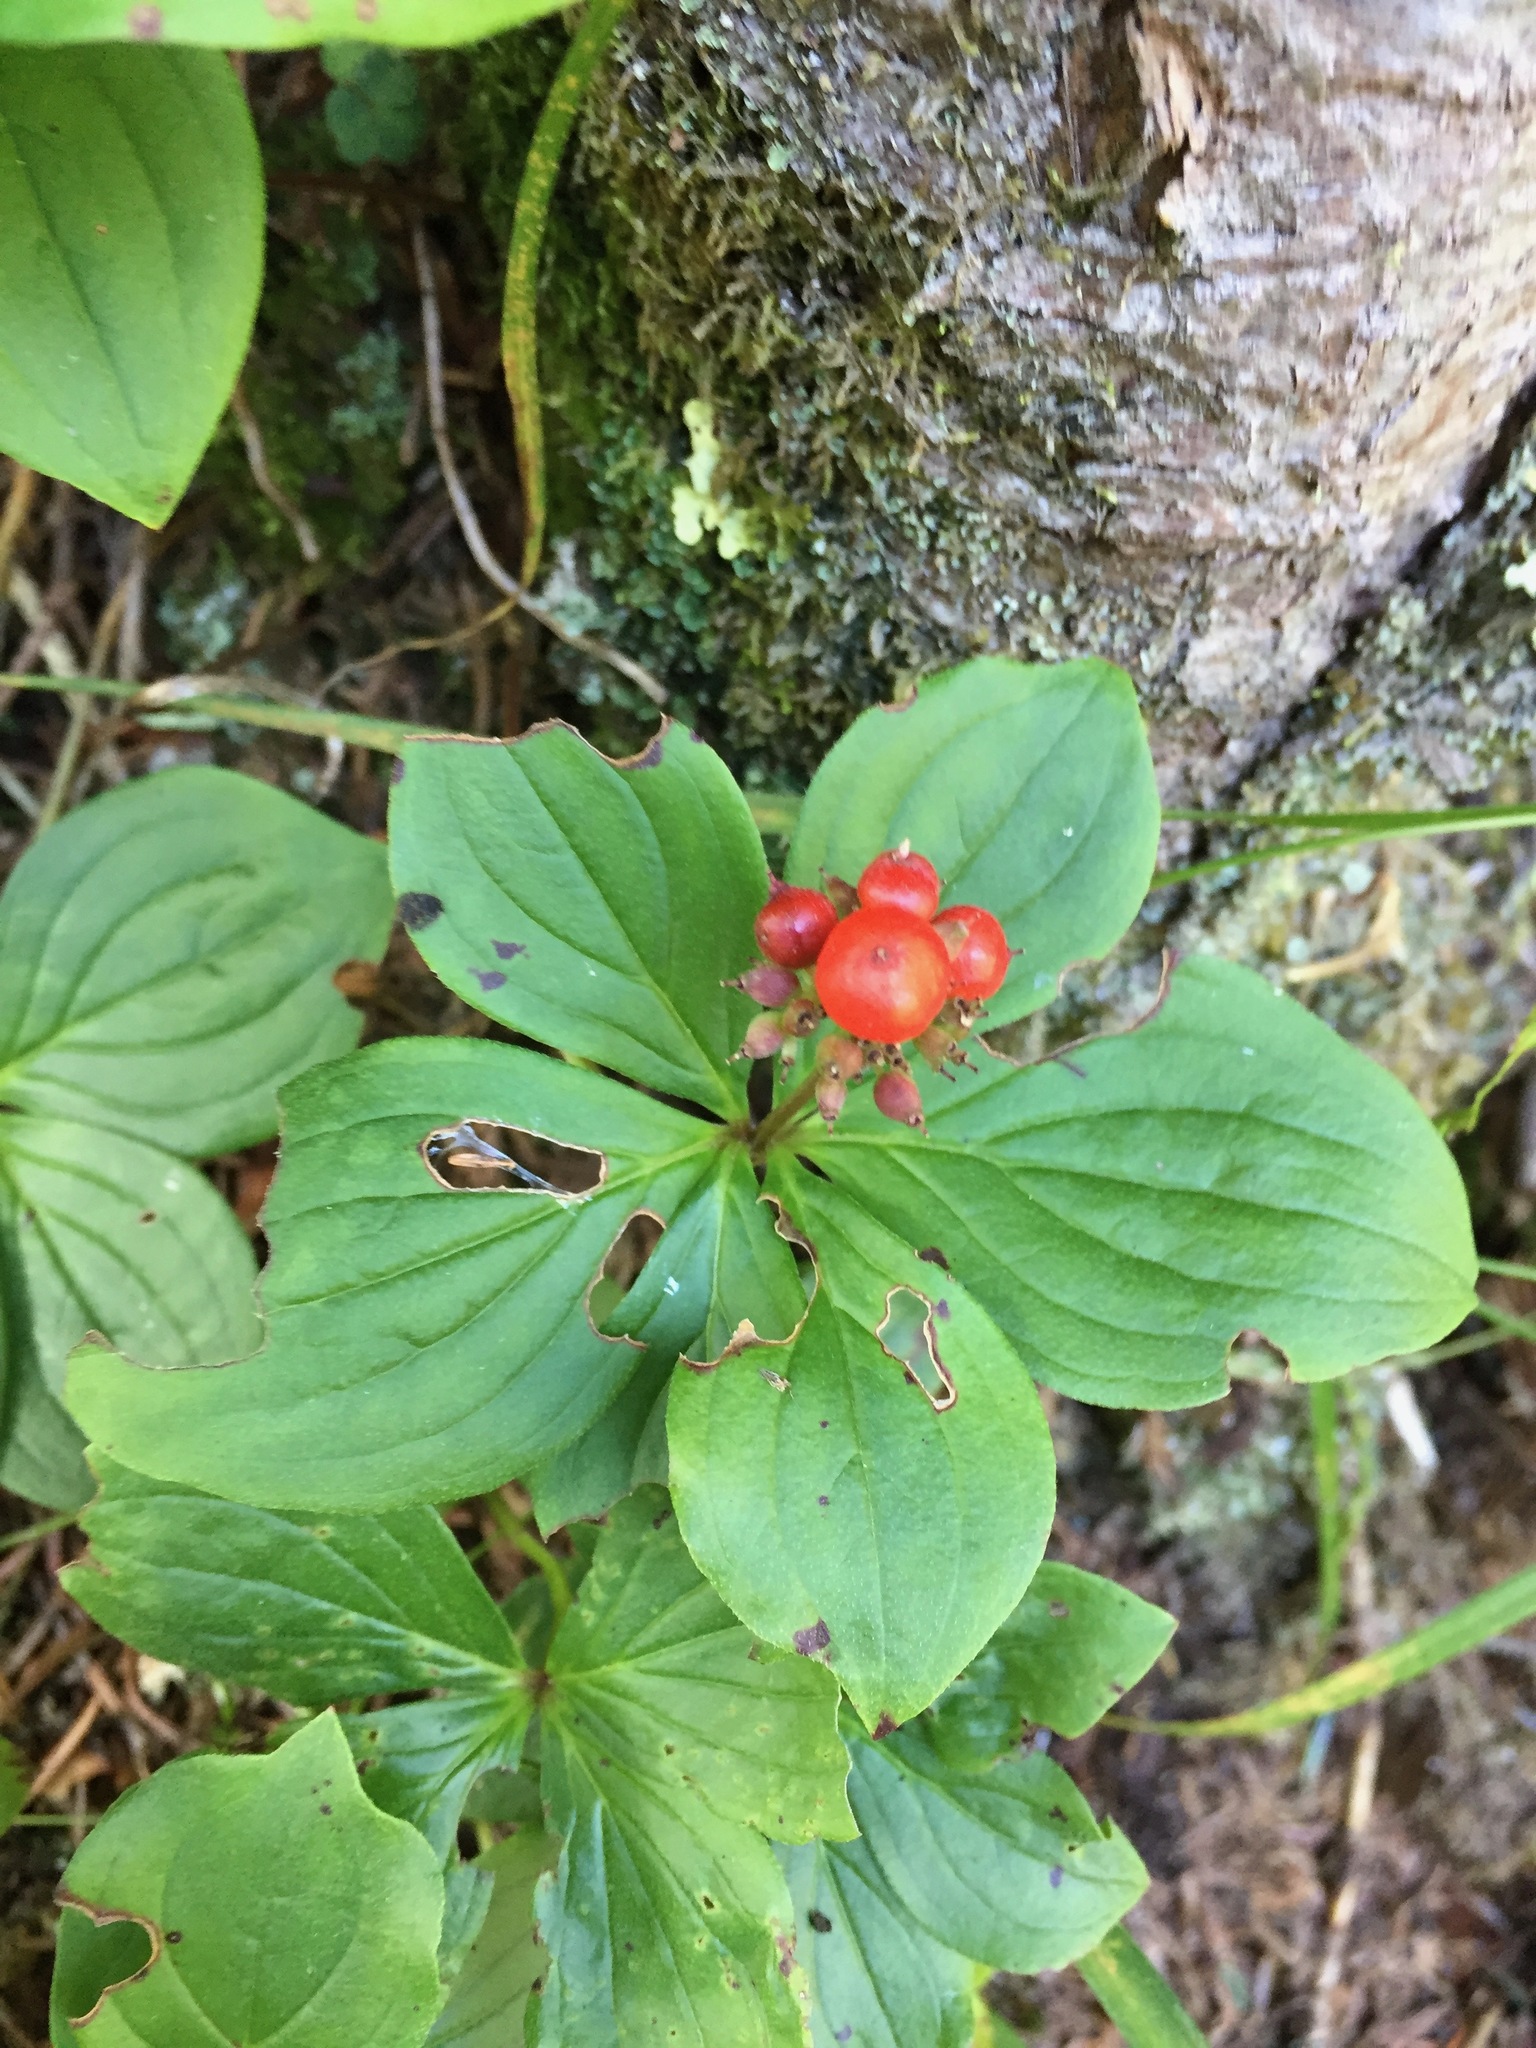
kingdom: Plantae
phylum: Tracheophyta
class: Magnoliopsida
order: Cornales
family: Cornaceae
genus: Cornus
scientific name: Cornus canadensis
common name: Creeping dogwood
